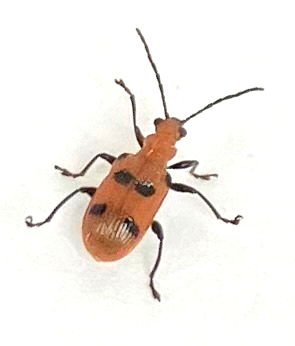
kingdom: Animalia
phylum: Arthropoda
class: Insecta
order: Coleoptera
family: Chrysomelidae
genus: Neolema
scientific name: Neolema sexpunctata
